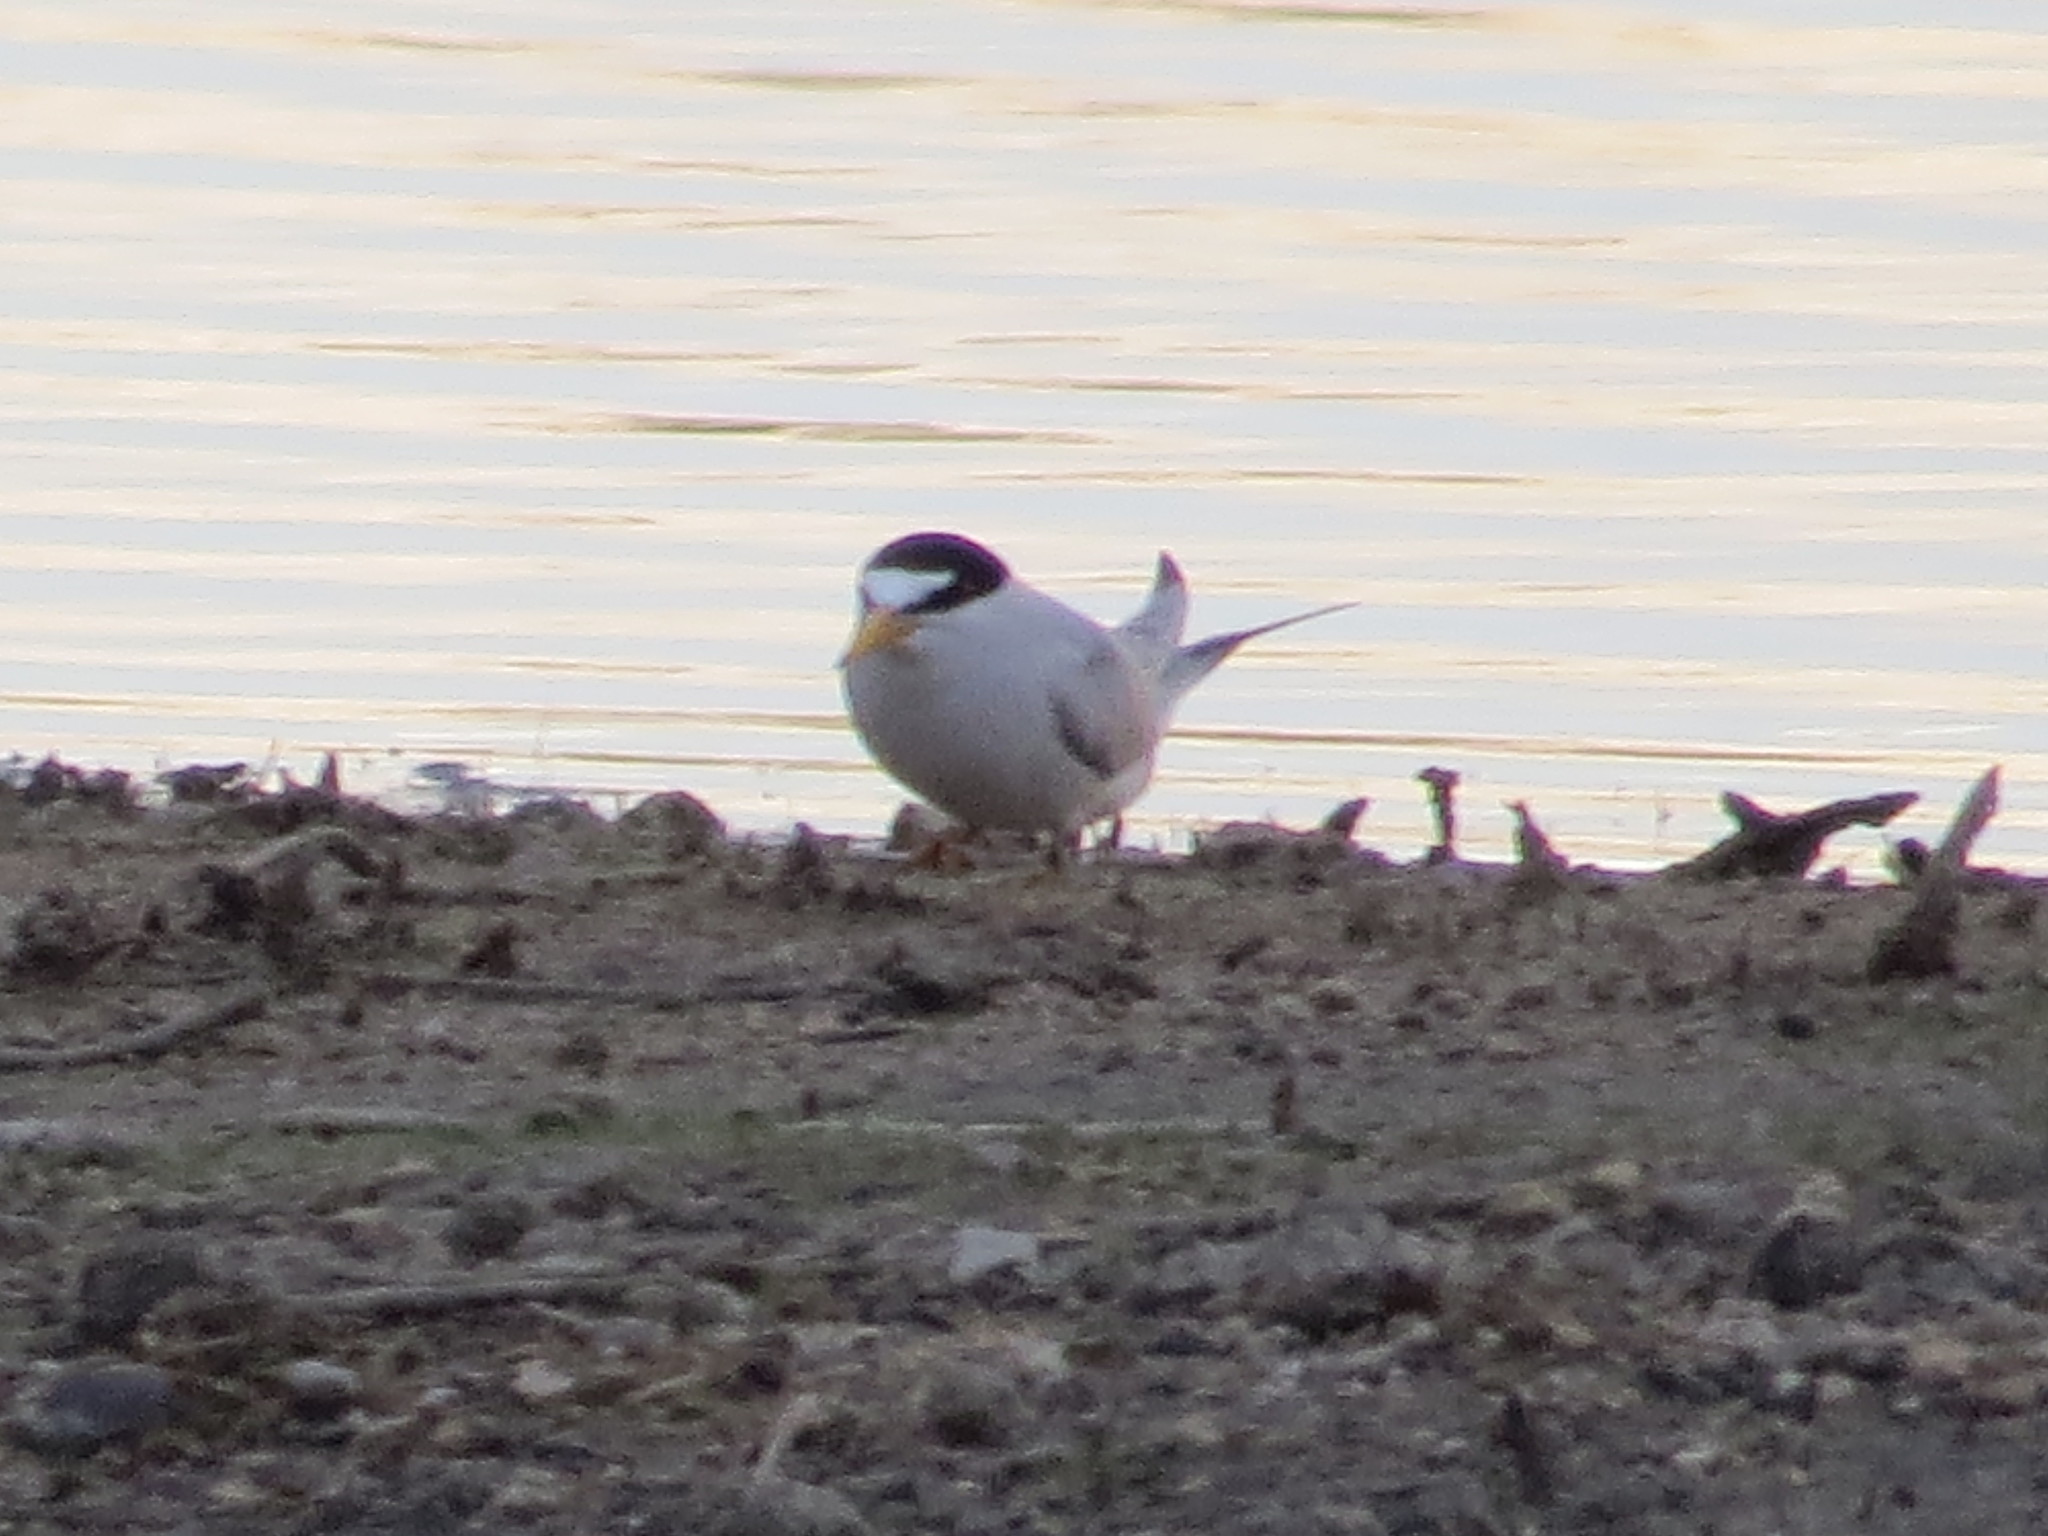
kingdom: Animalia
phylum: Chordata
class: Aves
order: Charadriiformes
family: Laridae
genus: Sternula
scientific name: Sternula antillarum
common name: Least tern
